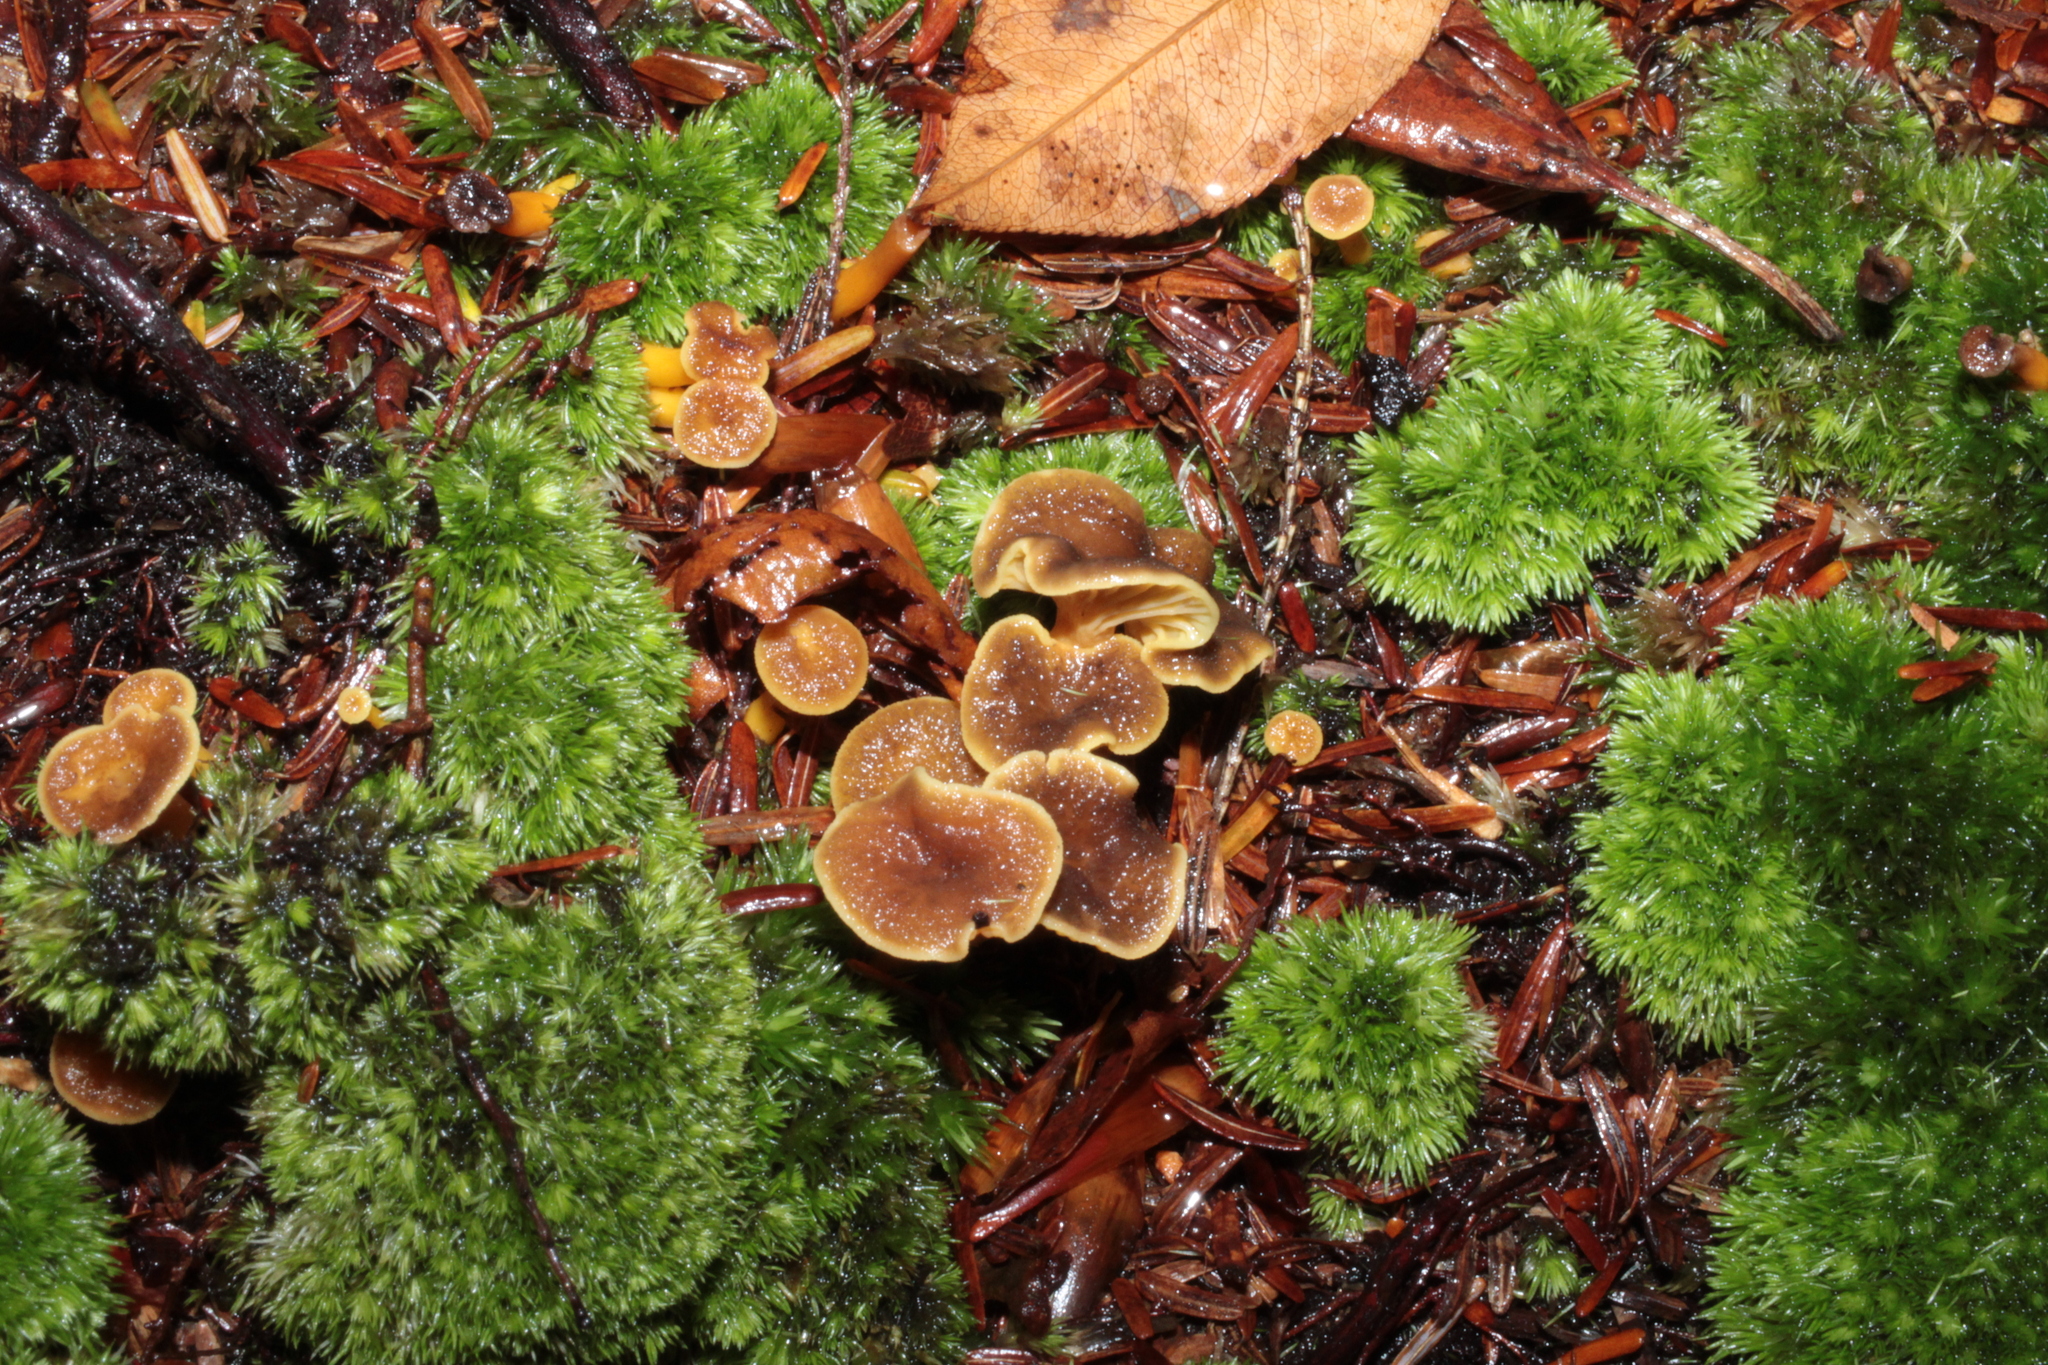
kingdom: Fungi
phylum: Basidiomycota
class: Agaricomycetes
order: Cantharellales
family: Hydnaceae
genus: Craterellus
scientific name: Craterellus tubaeformis
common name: Yellowfoot
